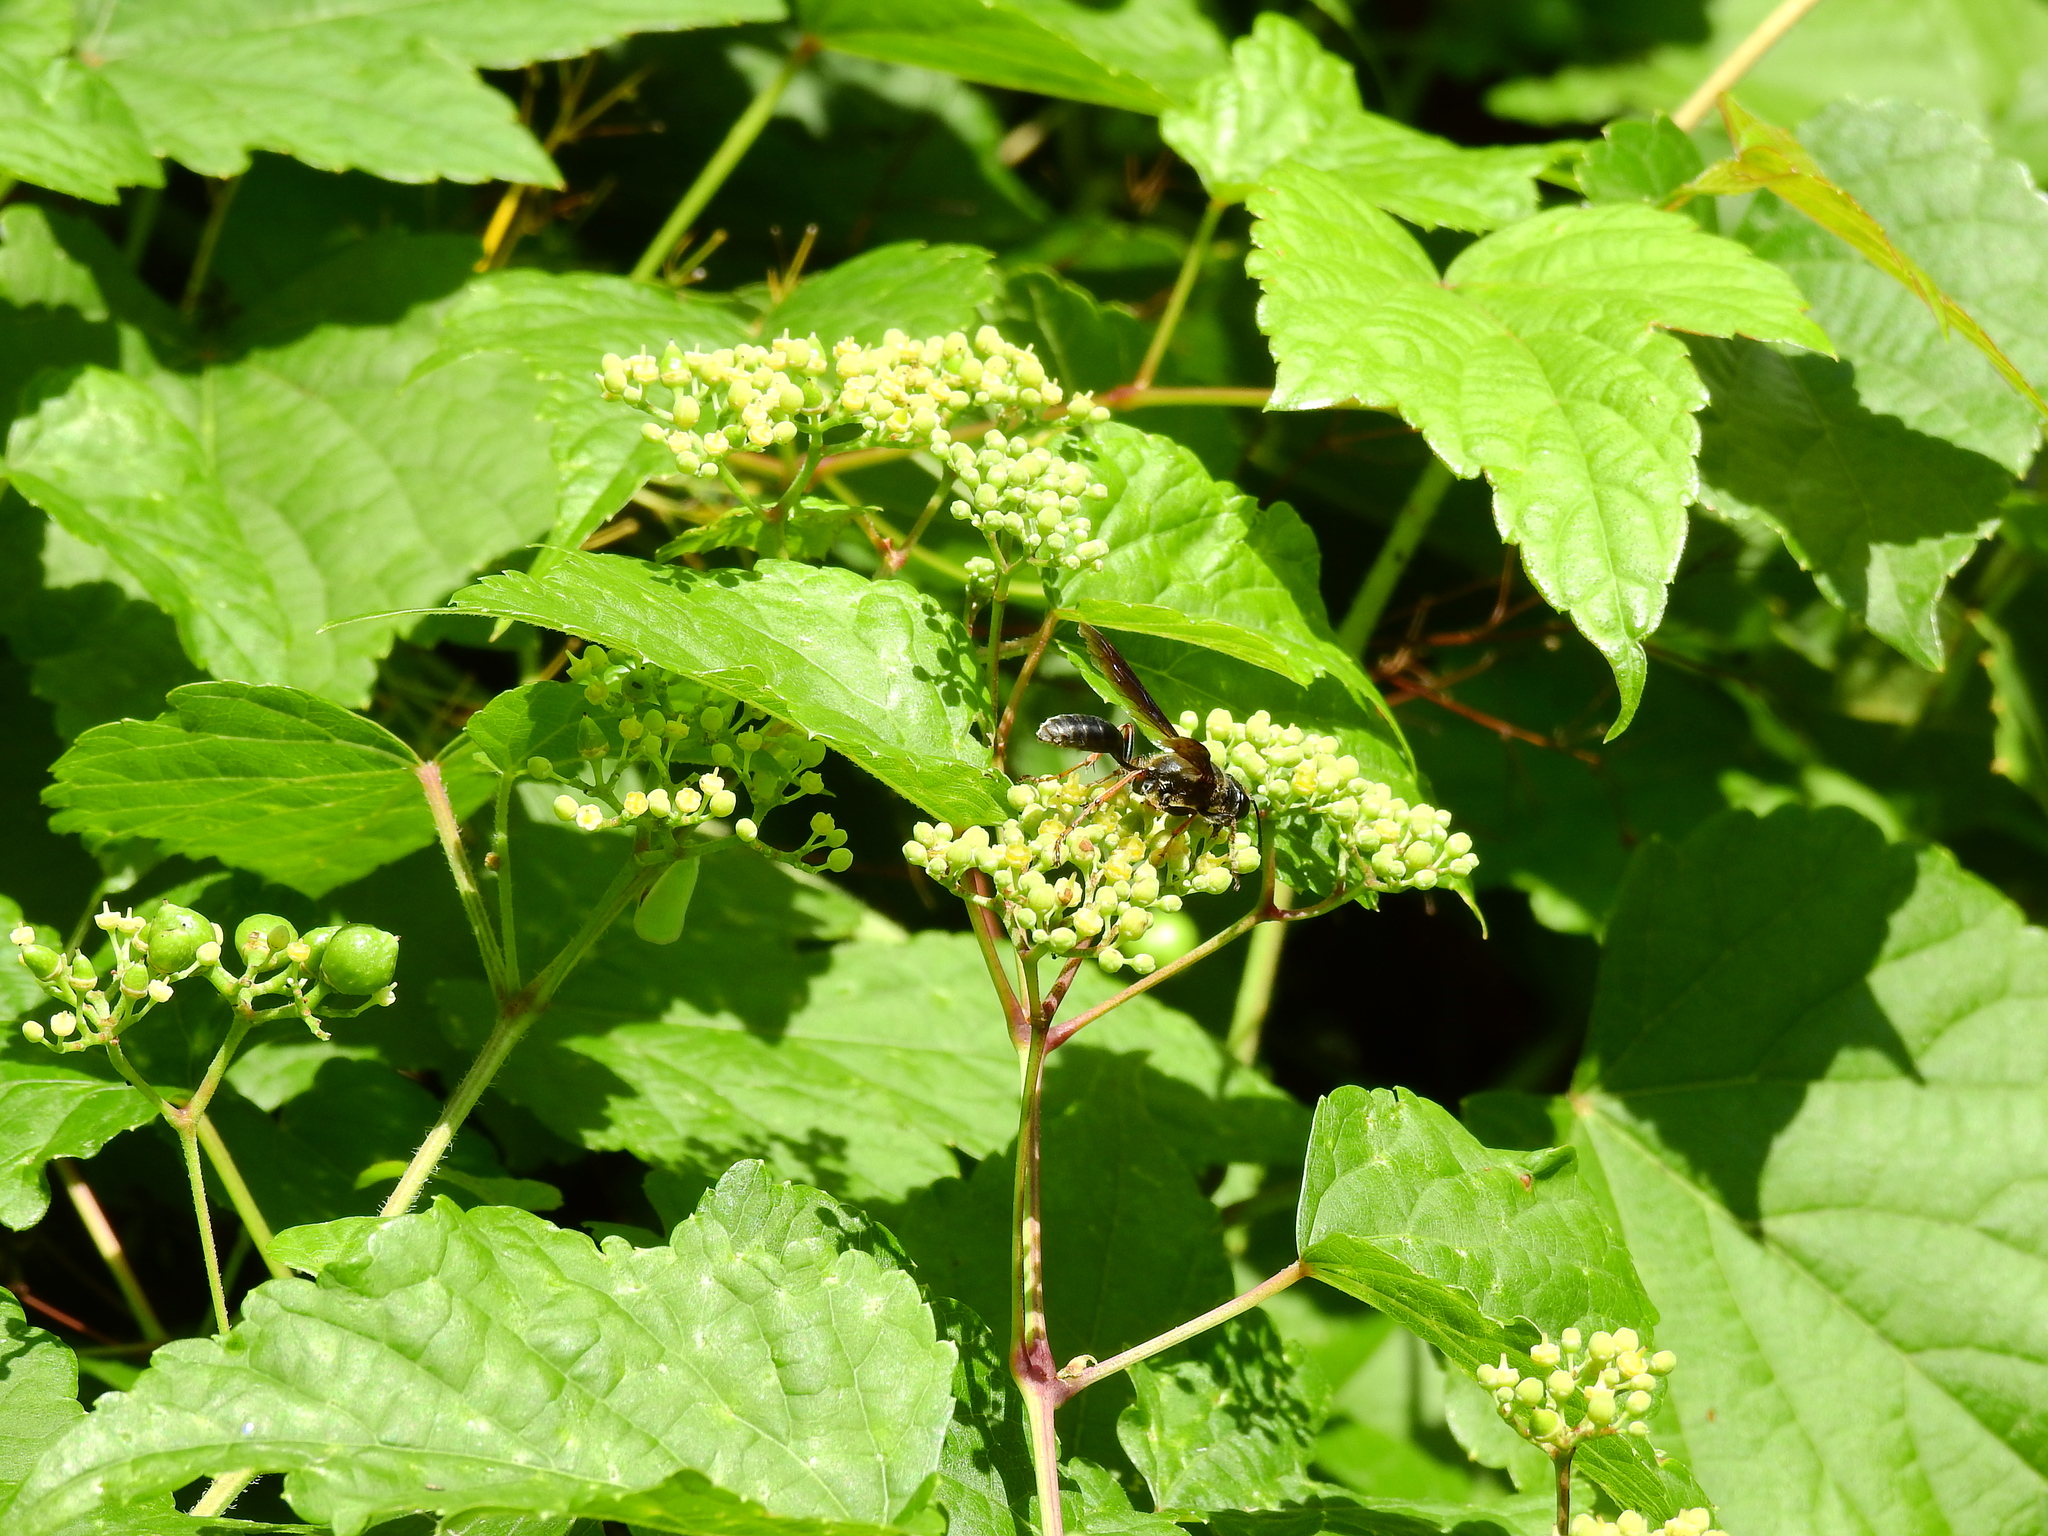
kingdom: Animalia
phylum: Arthropoda
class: Insecta
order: Hymenoptera
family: Sphecidae
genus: Isodontia
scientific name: Isodontia mexicana
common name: Mud dauber
